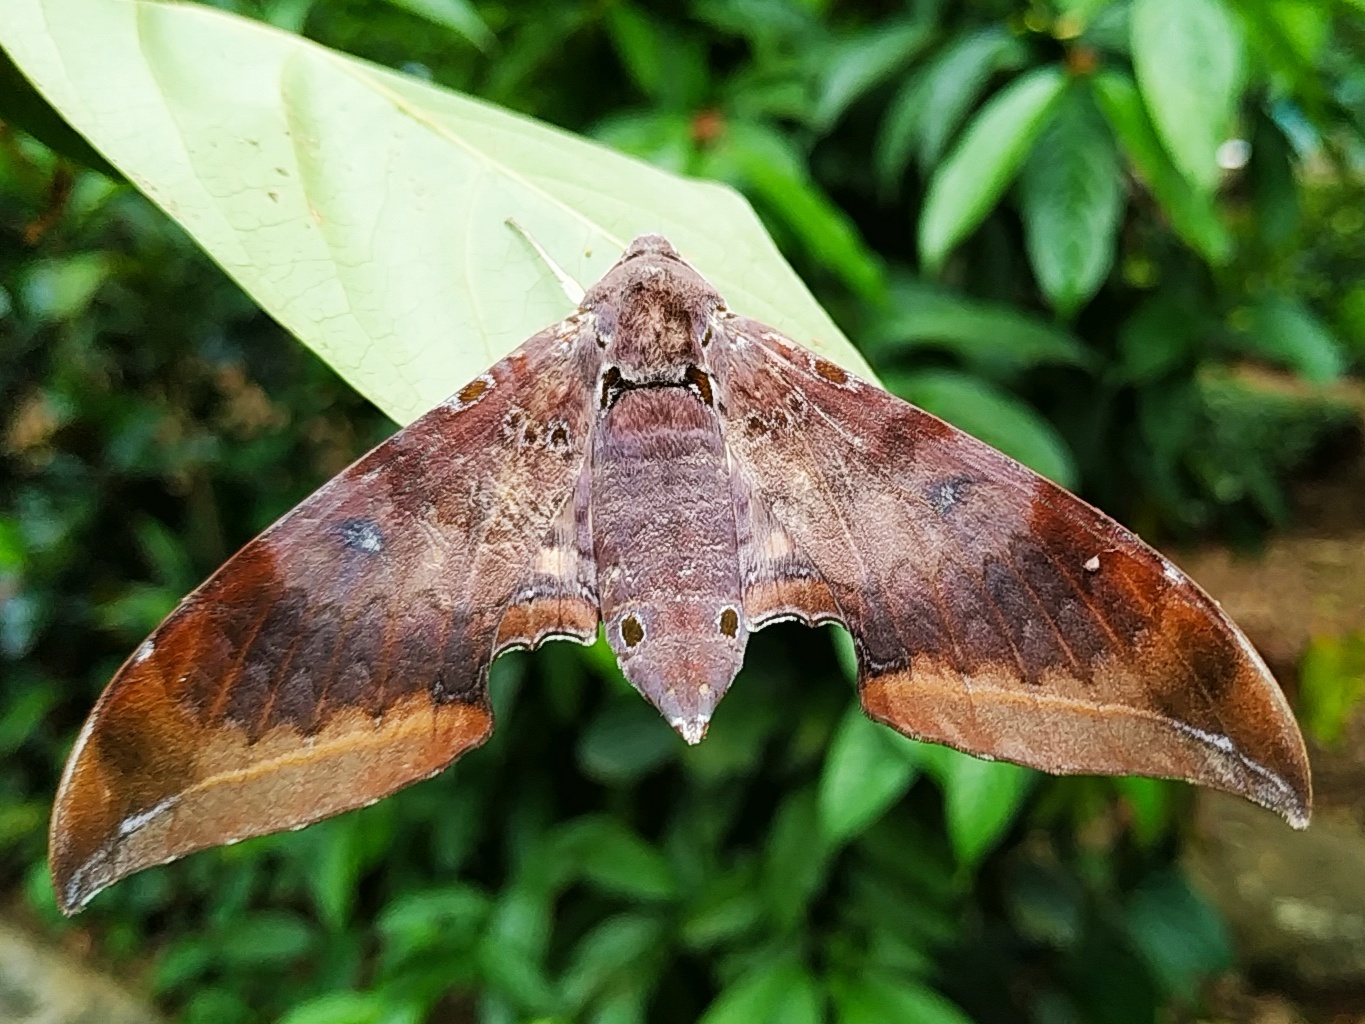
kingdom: Animalia
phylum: Arthropoda
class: Insecta
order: Lepidoptera
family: Sphingidae
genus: Ambulyx
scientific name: Ambulyx moorei
